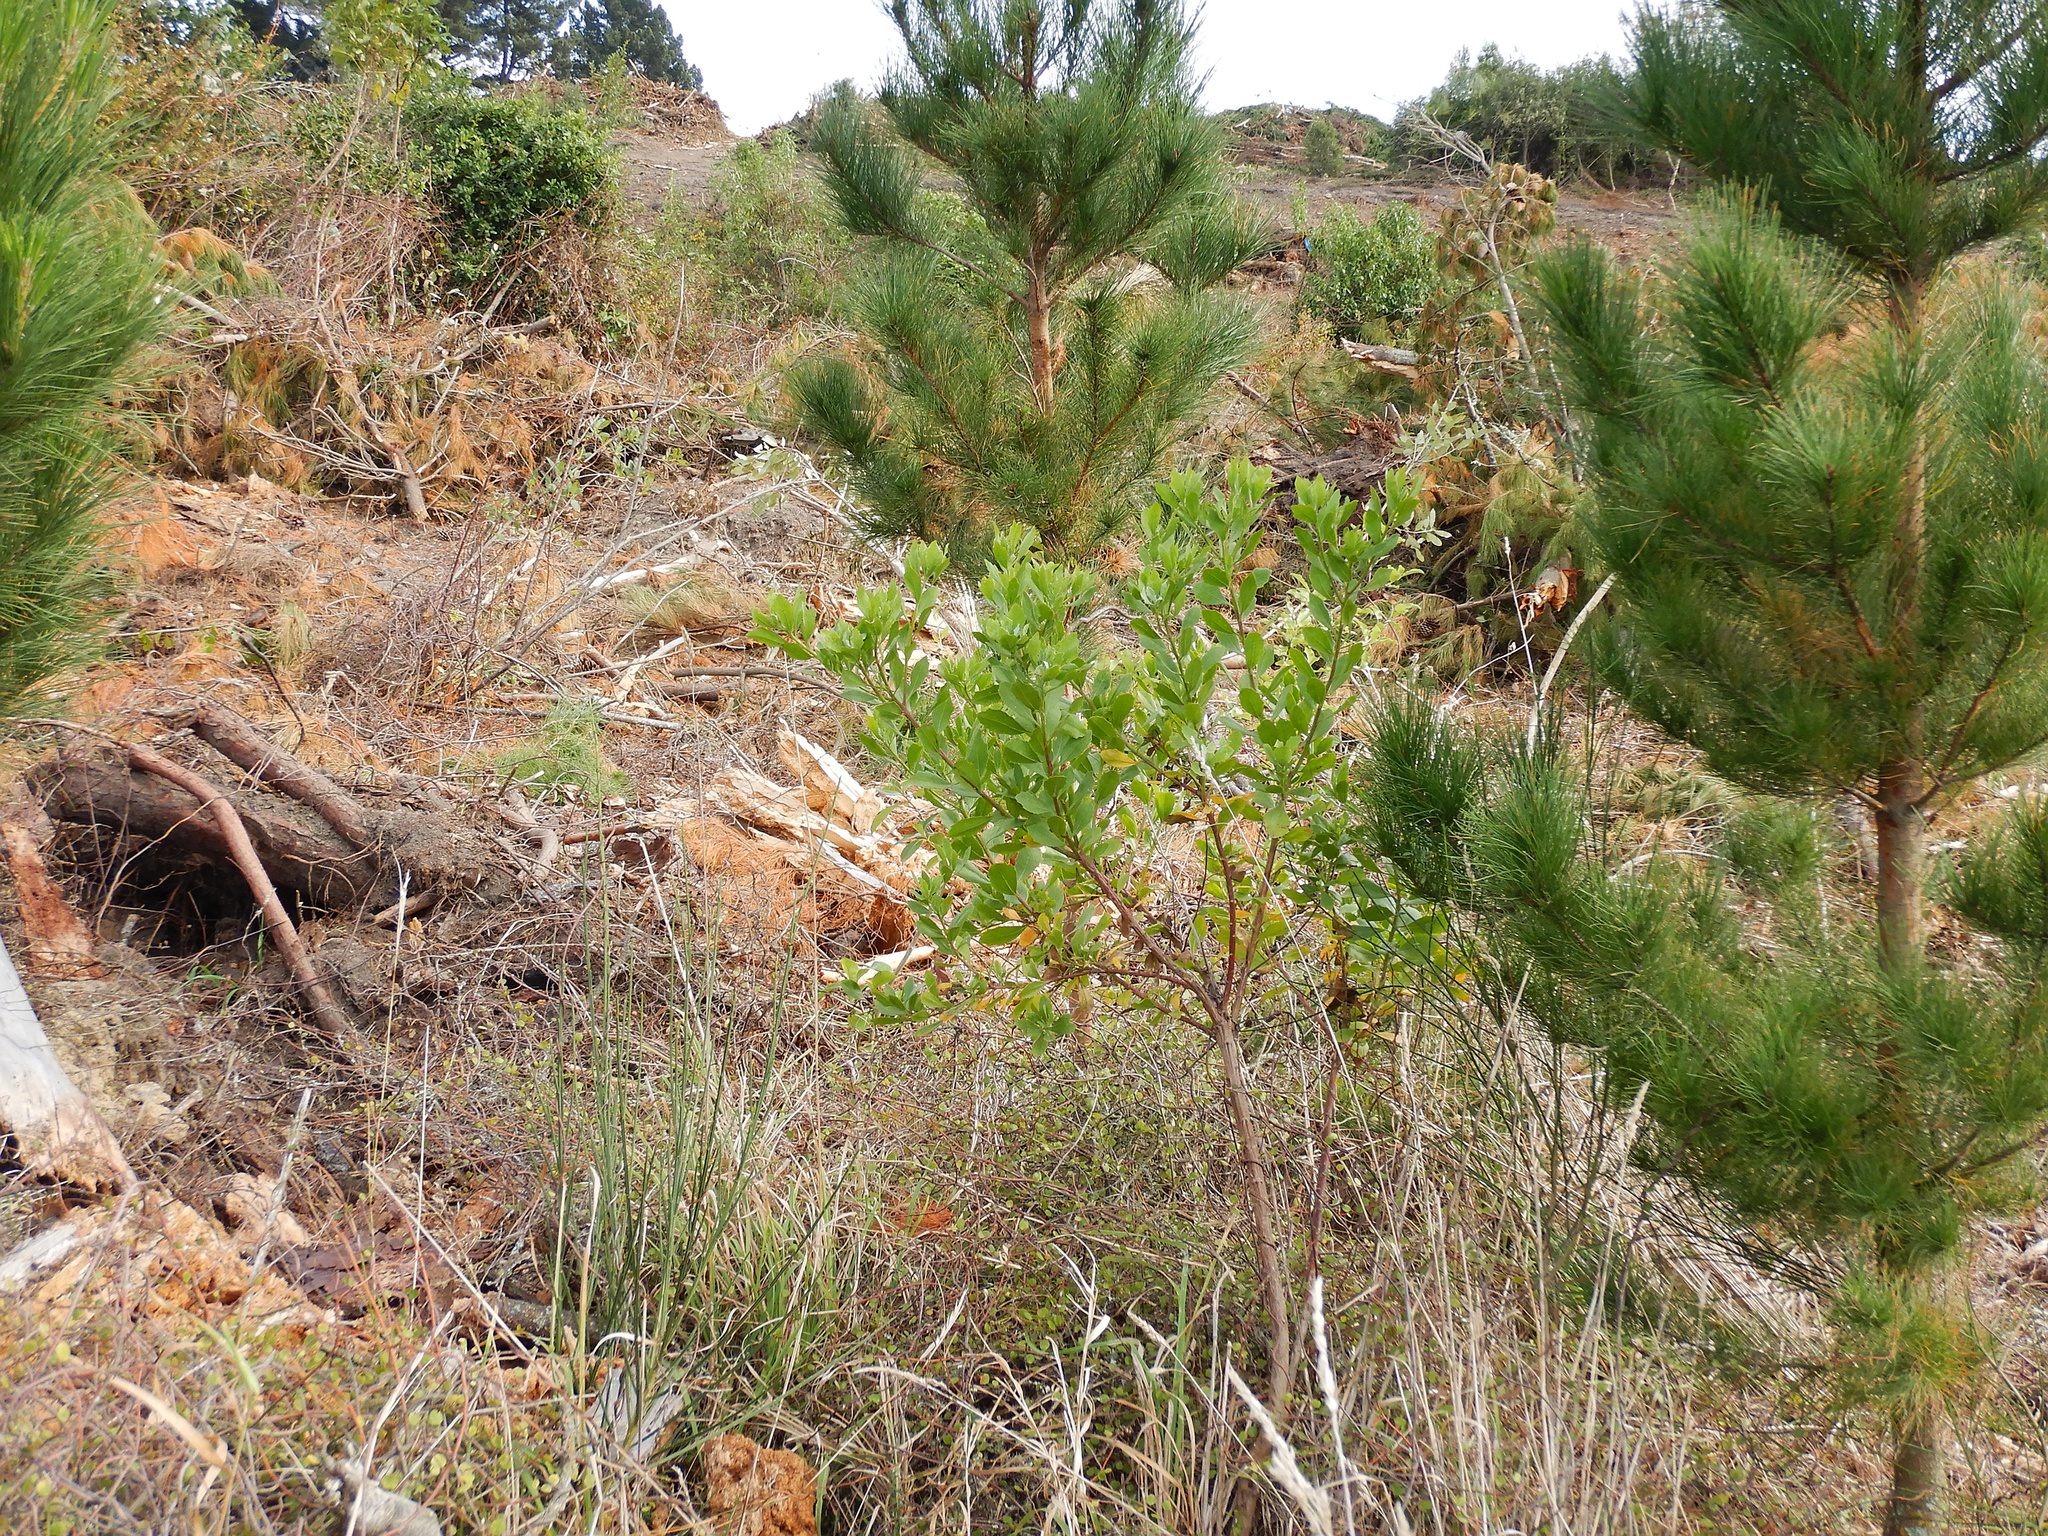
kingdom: Plantae
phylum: Tracheophyta
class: Magnoliopsida
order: Asterales
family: Asteraceae
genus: Osteospermum
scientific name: Osteospermum moniliferum
